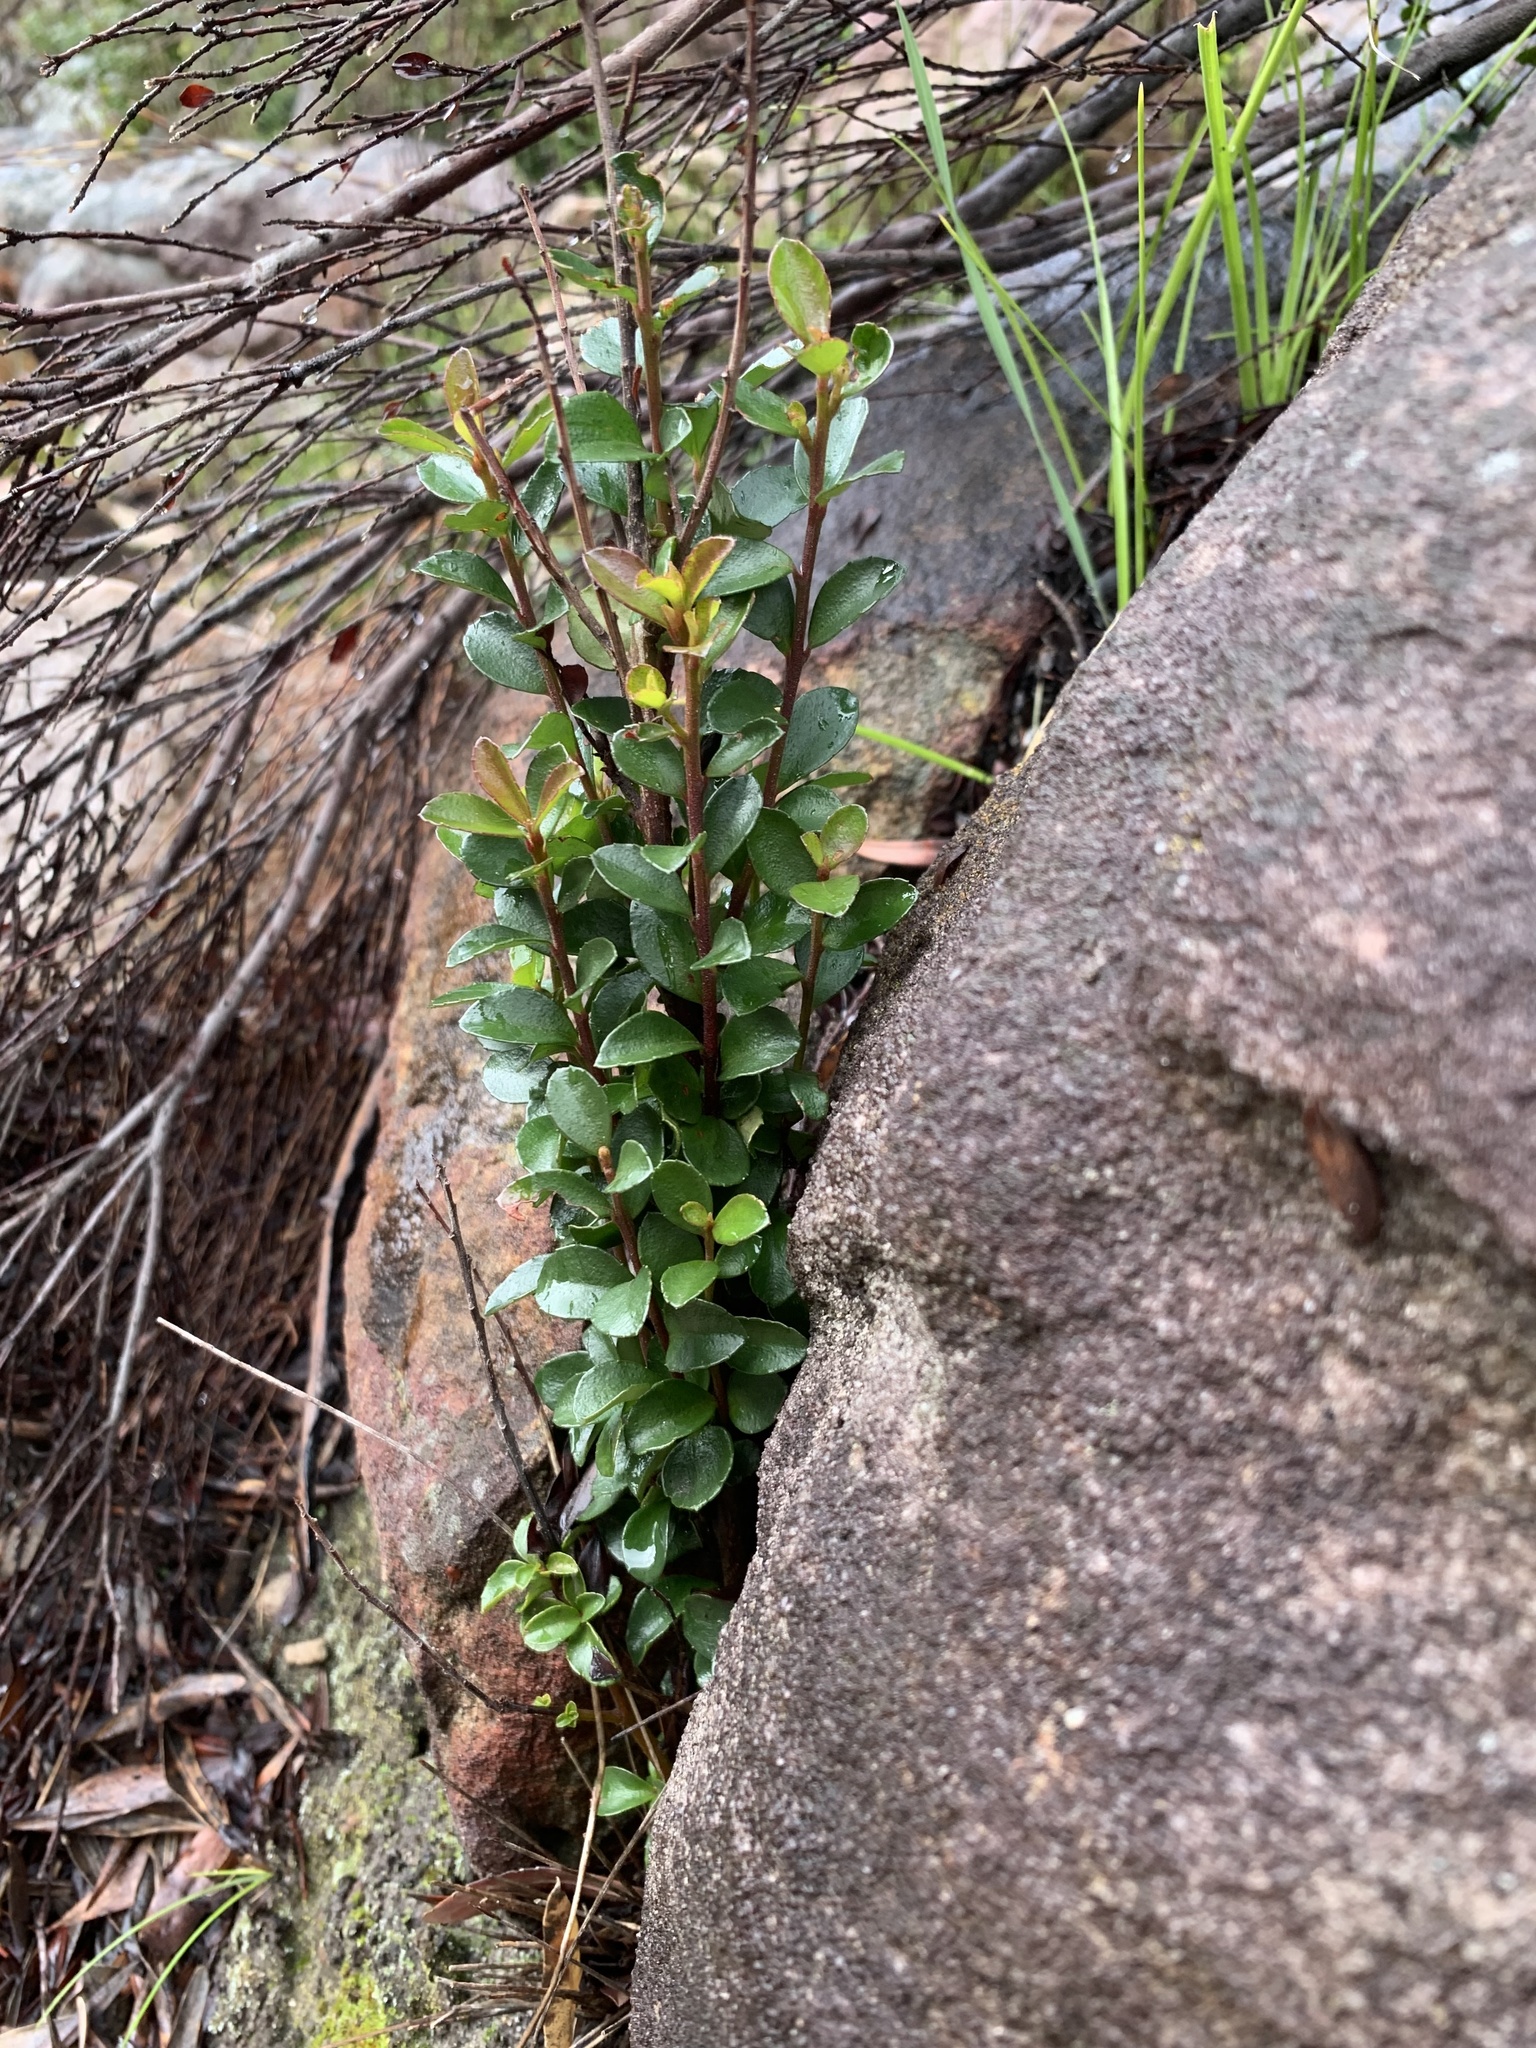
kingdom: Plantae
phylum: Tracheophyta
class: Magnoliopsida
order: Ericales
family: Primulaceae
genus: Myrsine
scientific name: Myrsine africana
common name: African-boxwood
